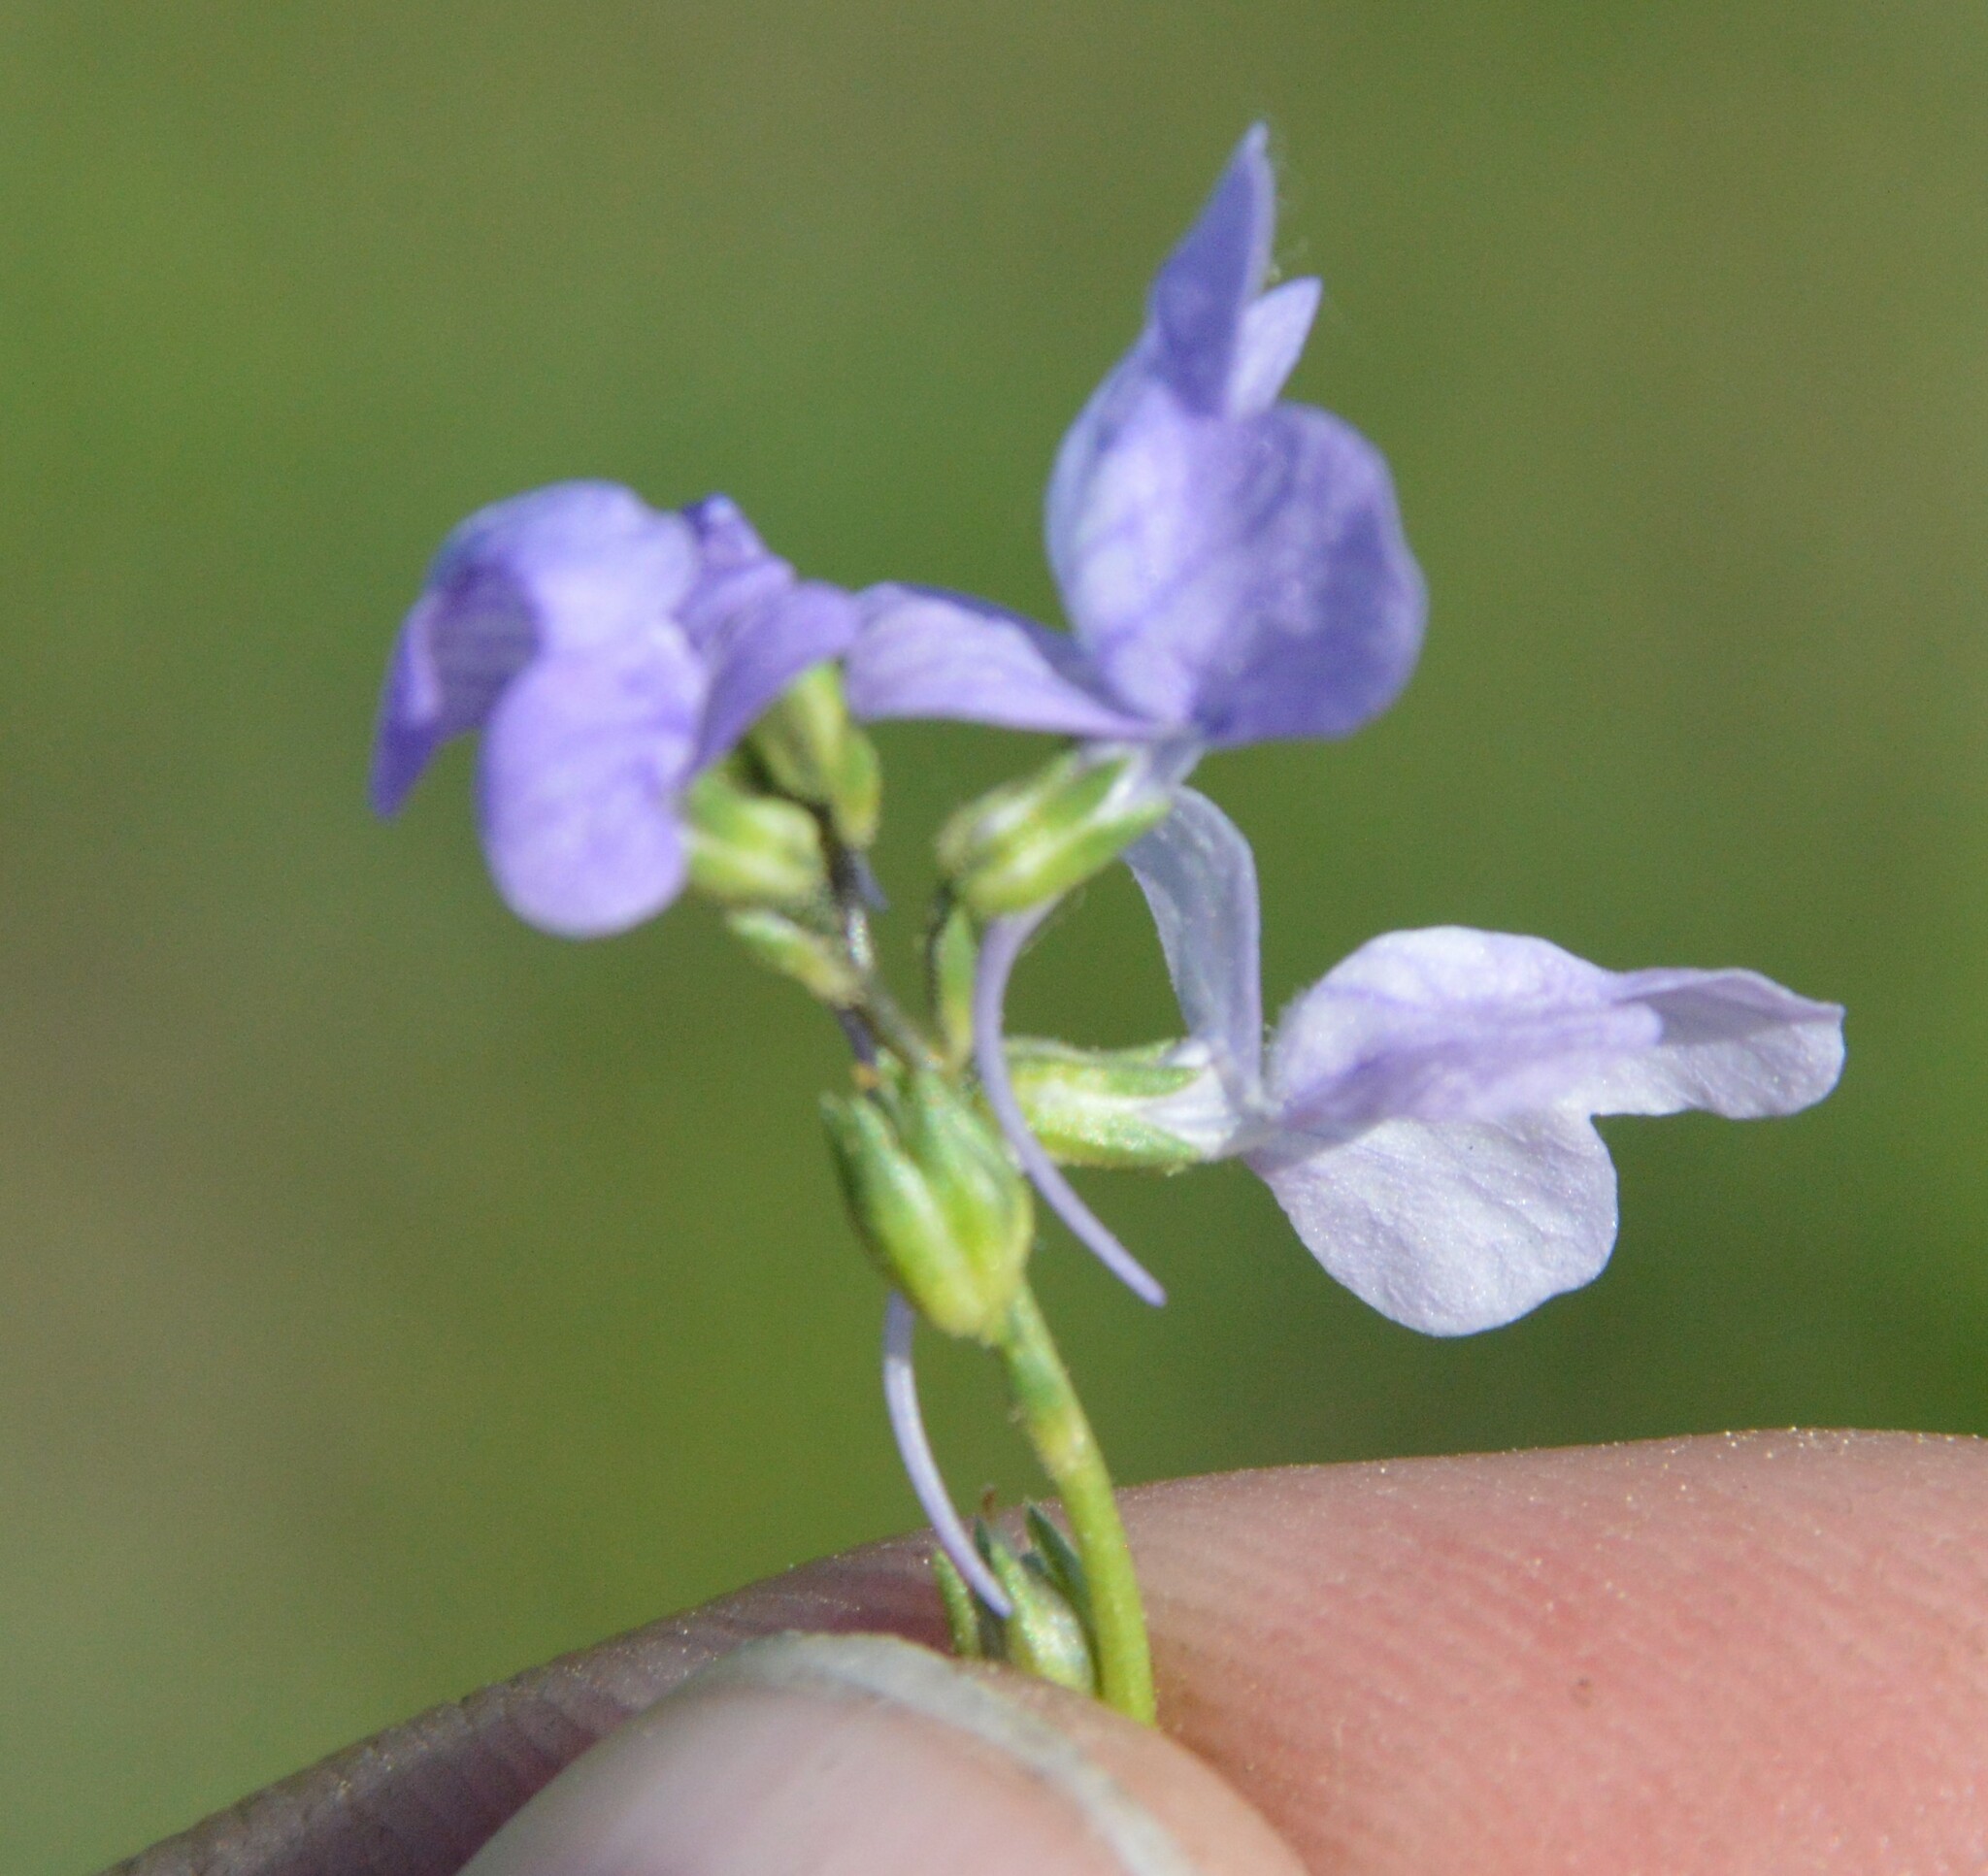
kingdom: Plantae
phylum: Tracheophyta
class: Magnoliopsida
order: Lamiales
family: Plantaginaceae
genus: Nuttallanthus
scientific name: Nuttallanthus texanus
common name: Texas toadflax
